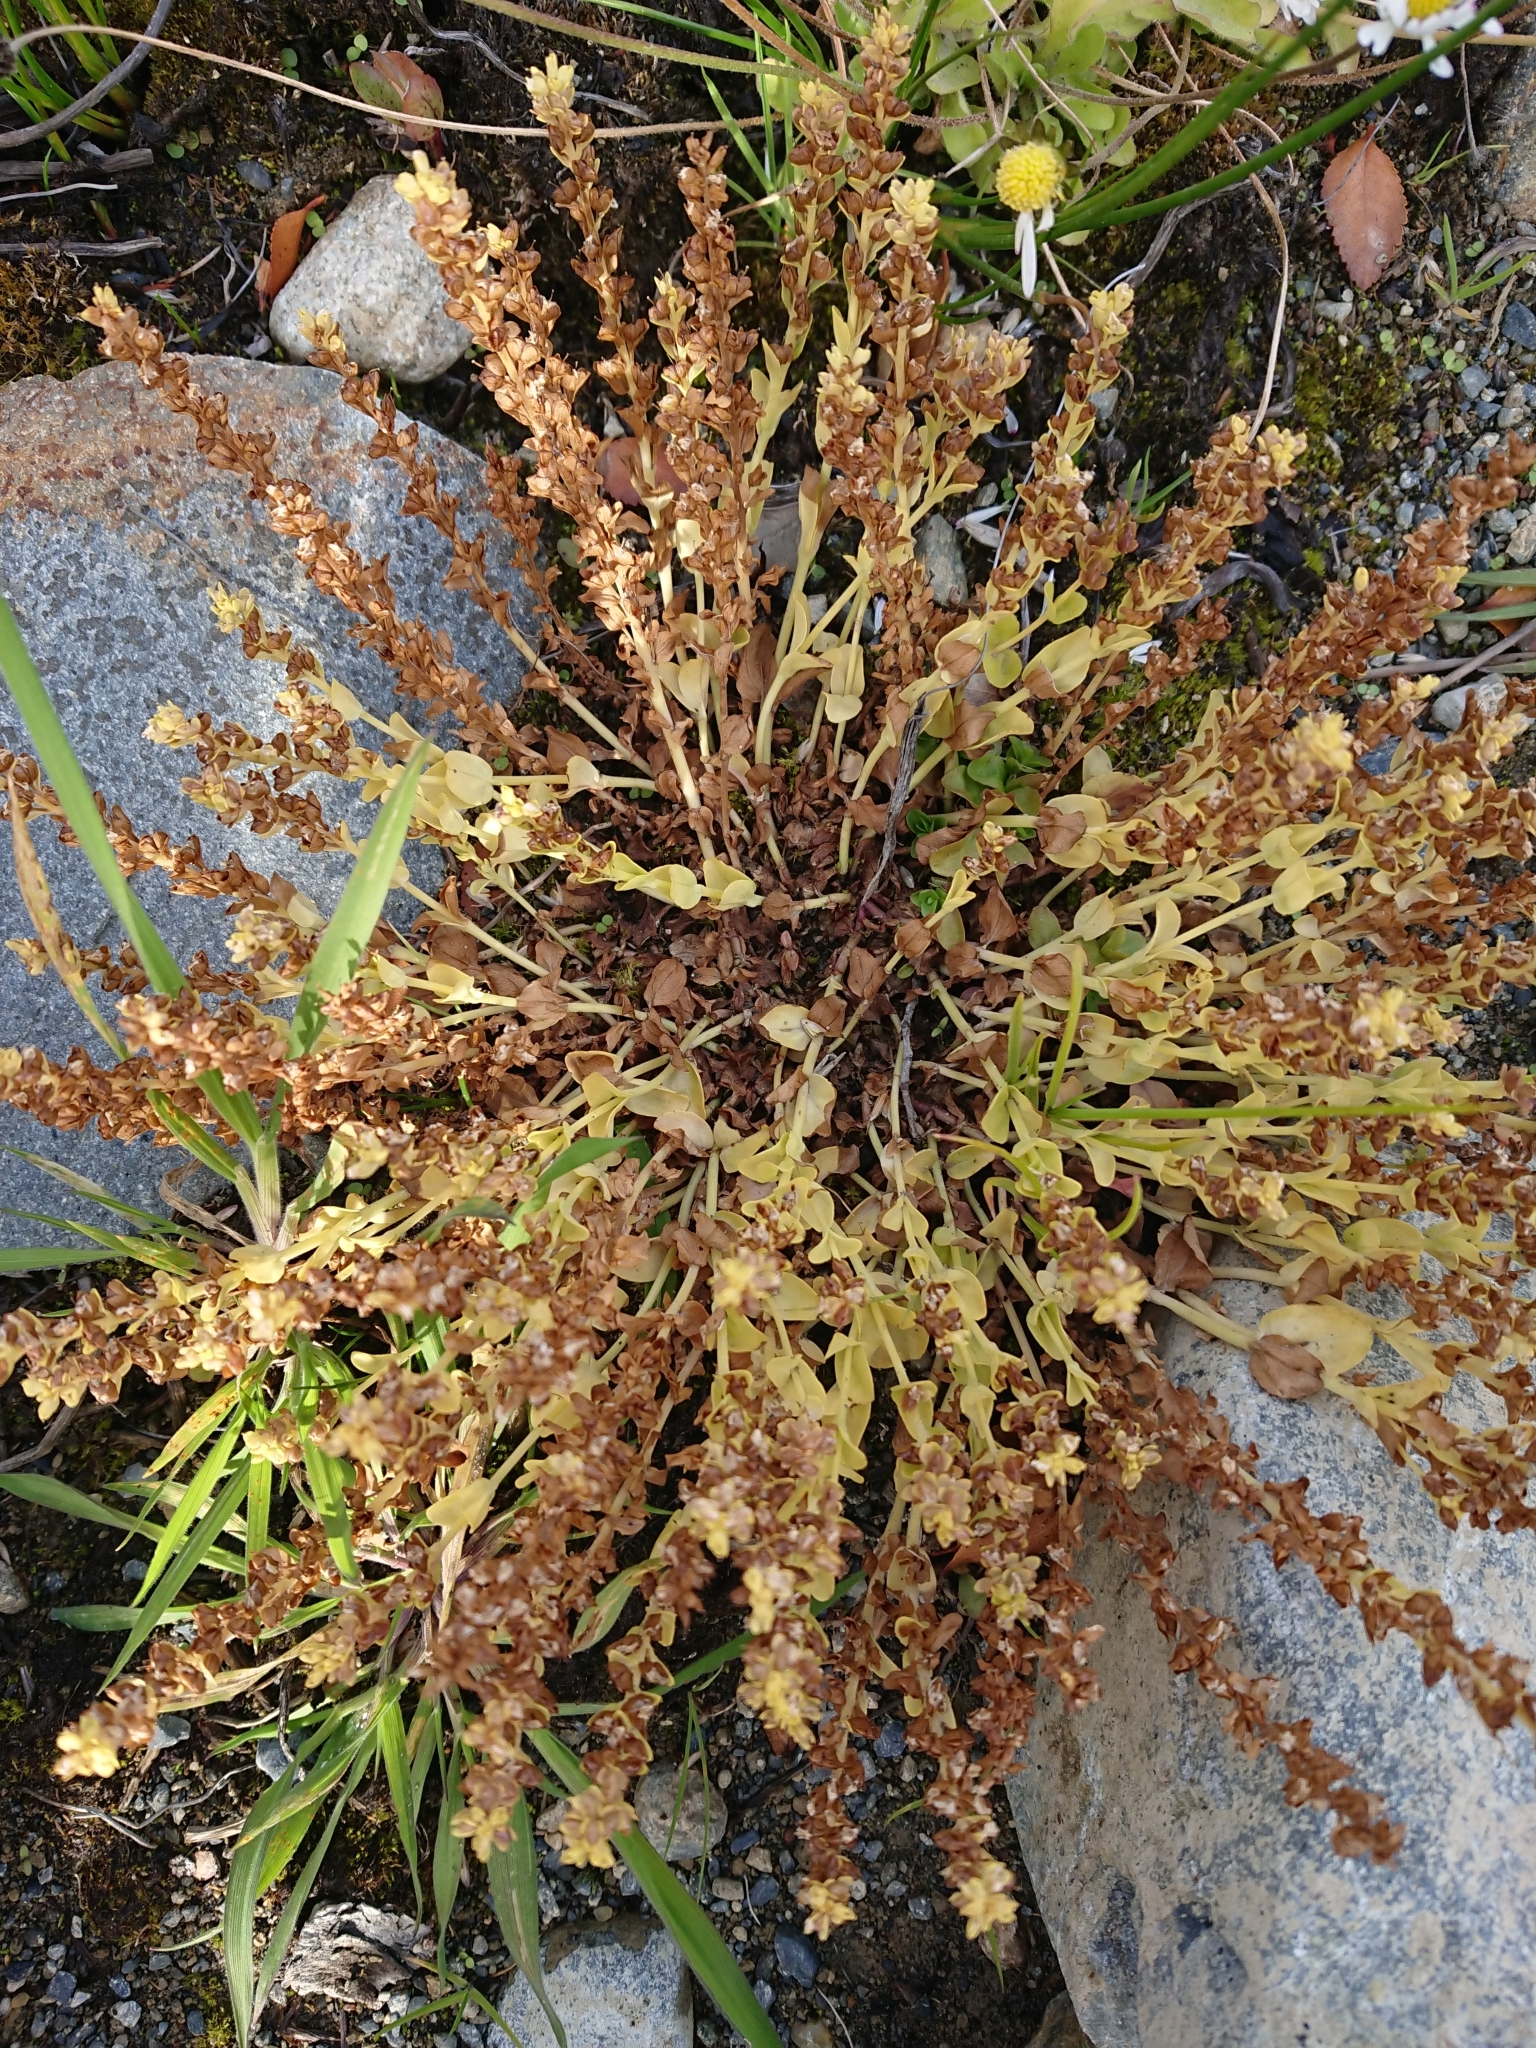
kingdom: Plantae
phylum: Tracheophyta
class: Magnoliopsida
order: Lamiales
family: Plantaginaceae
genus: Veronica
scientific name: Veronica serpyllifolia
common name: Thyme-leaved speedwell
